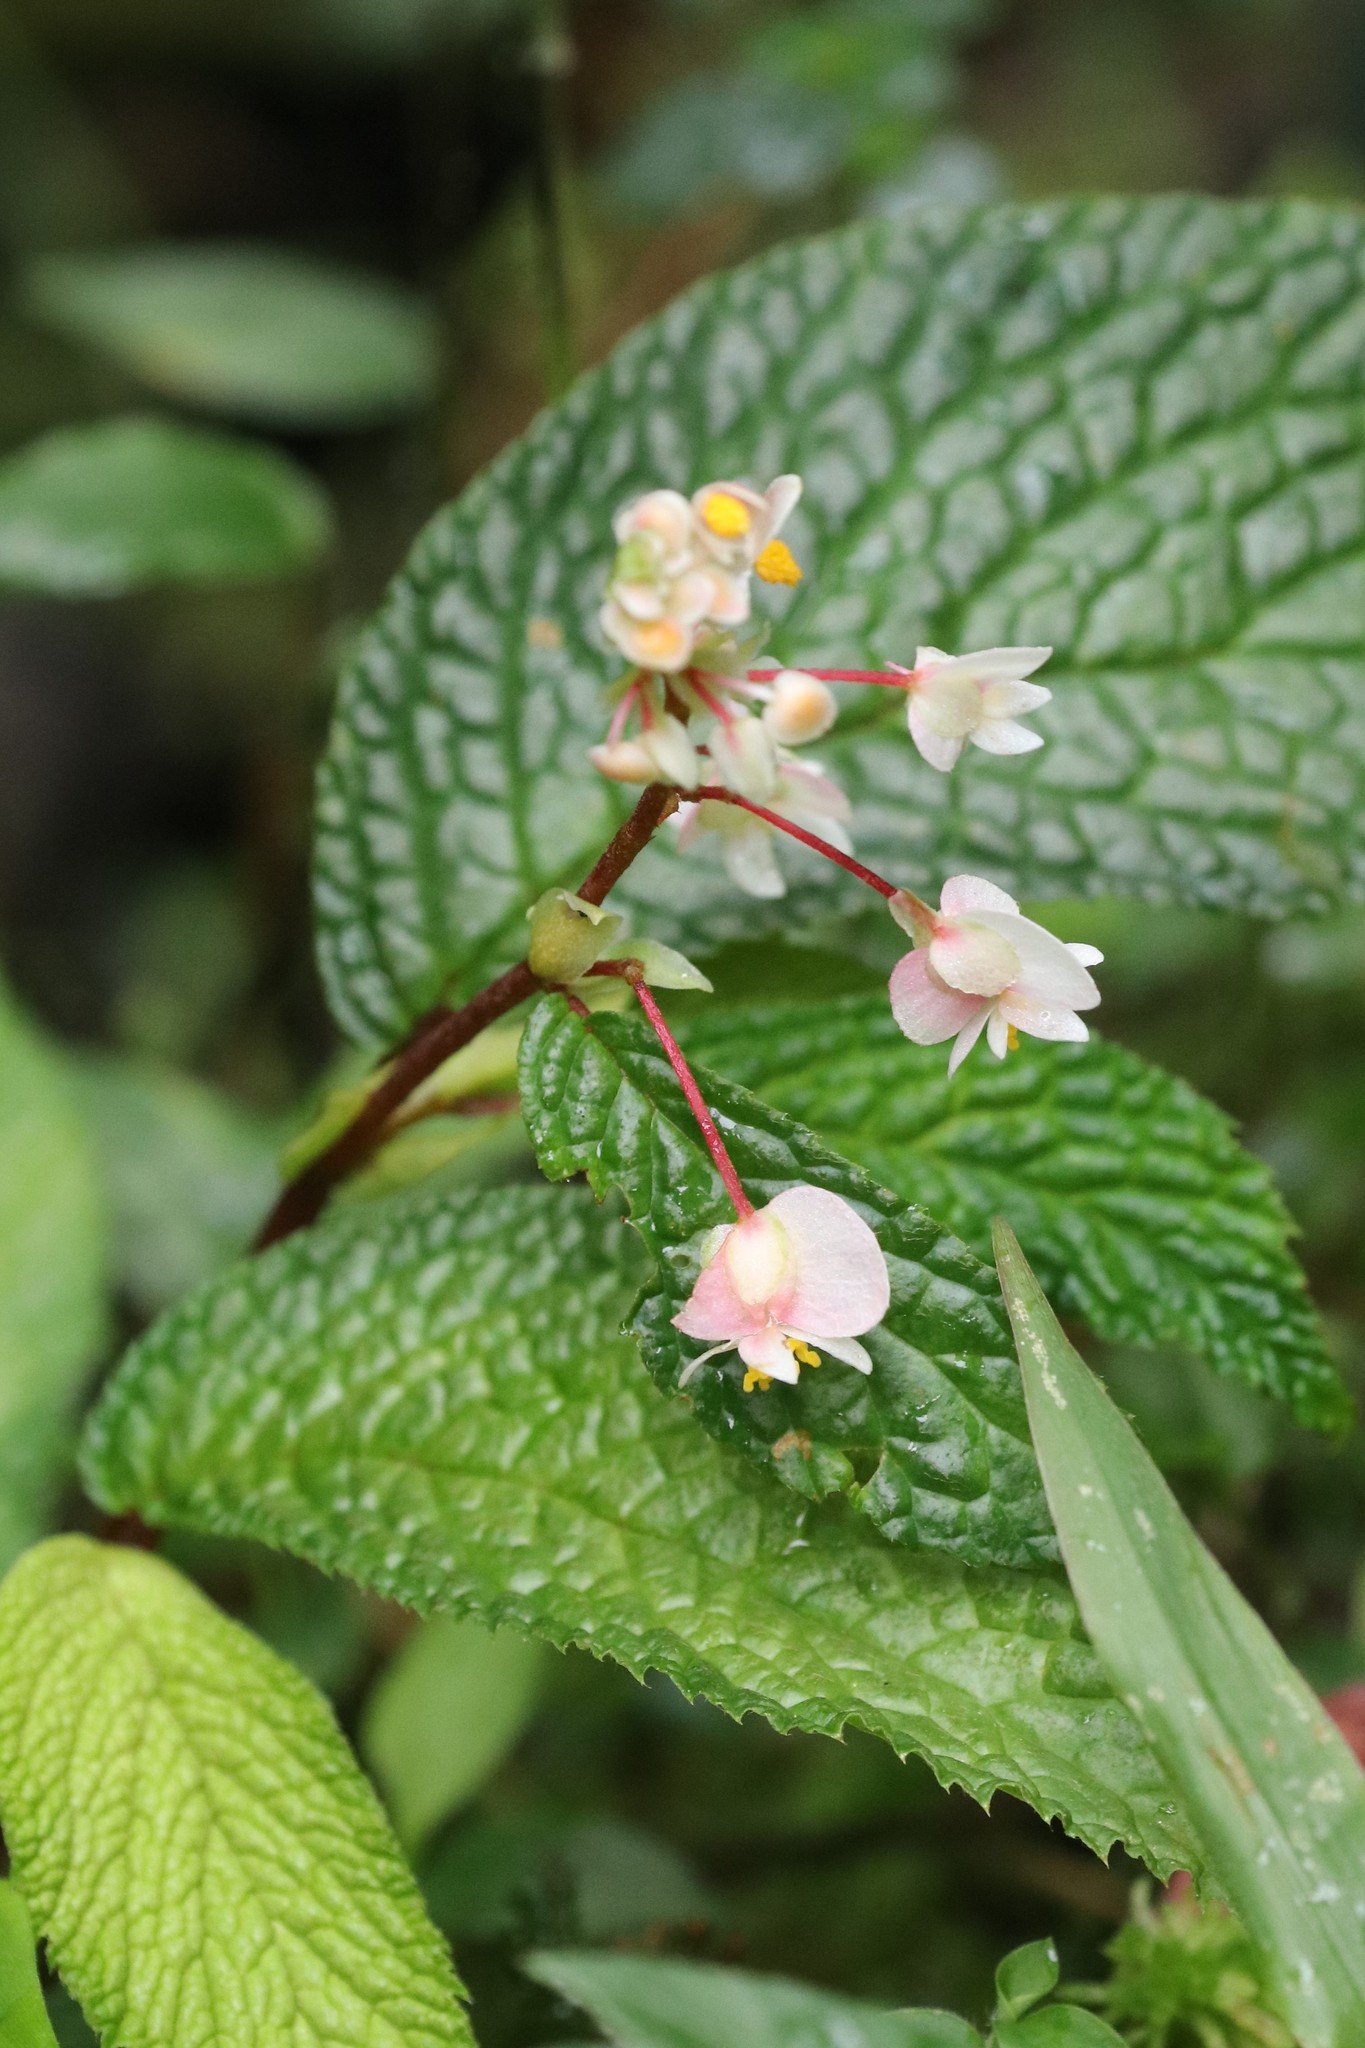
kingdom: Plantae
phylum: Tracheophyta
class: Magnoliopsida
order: Cucurbitales
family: Begoniaceae
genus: Begonia
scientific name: Begonia buddleiifolia
